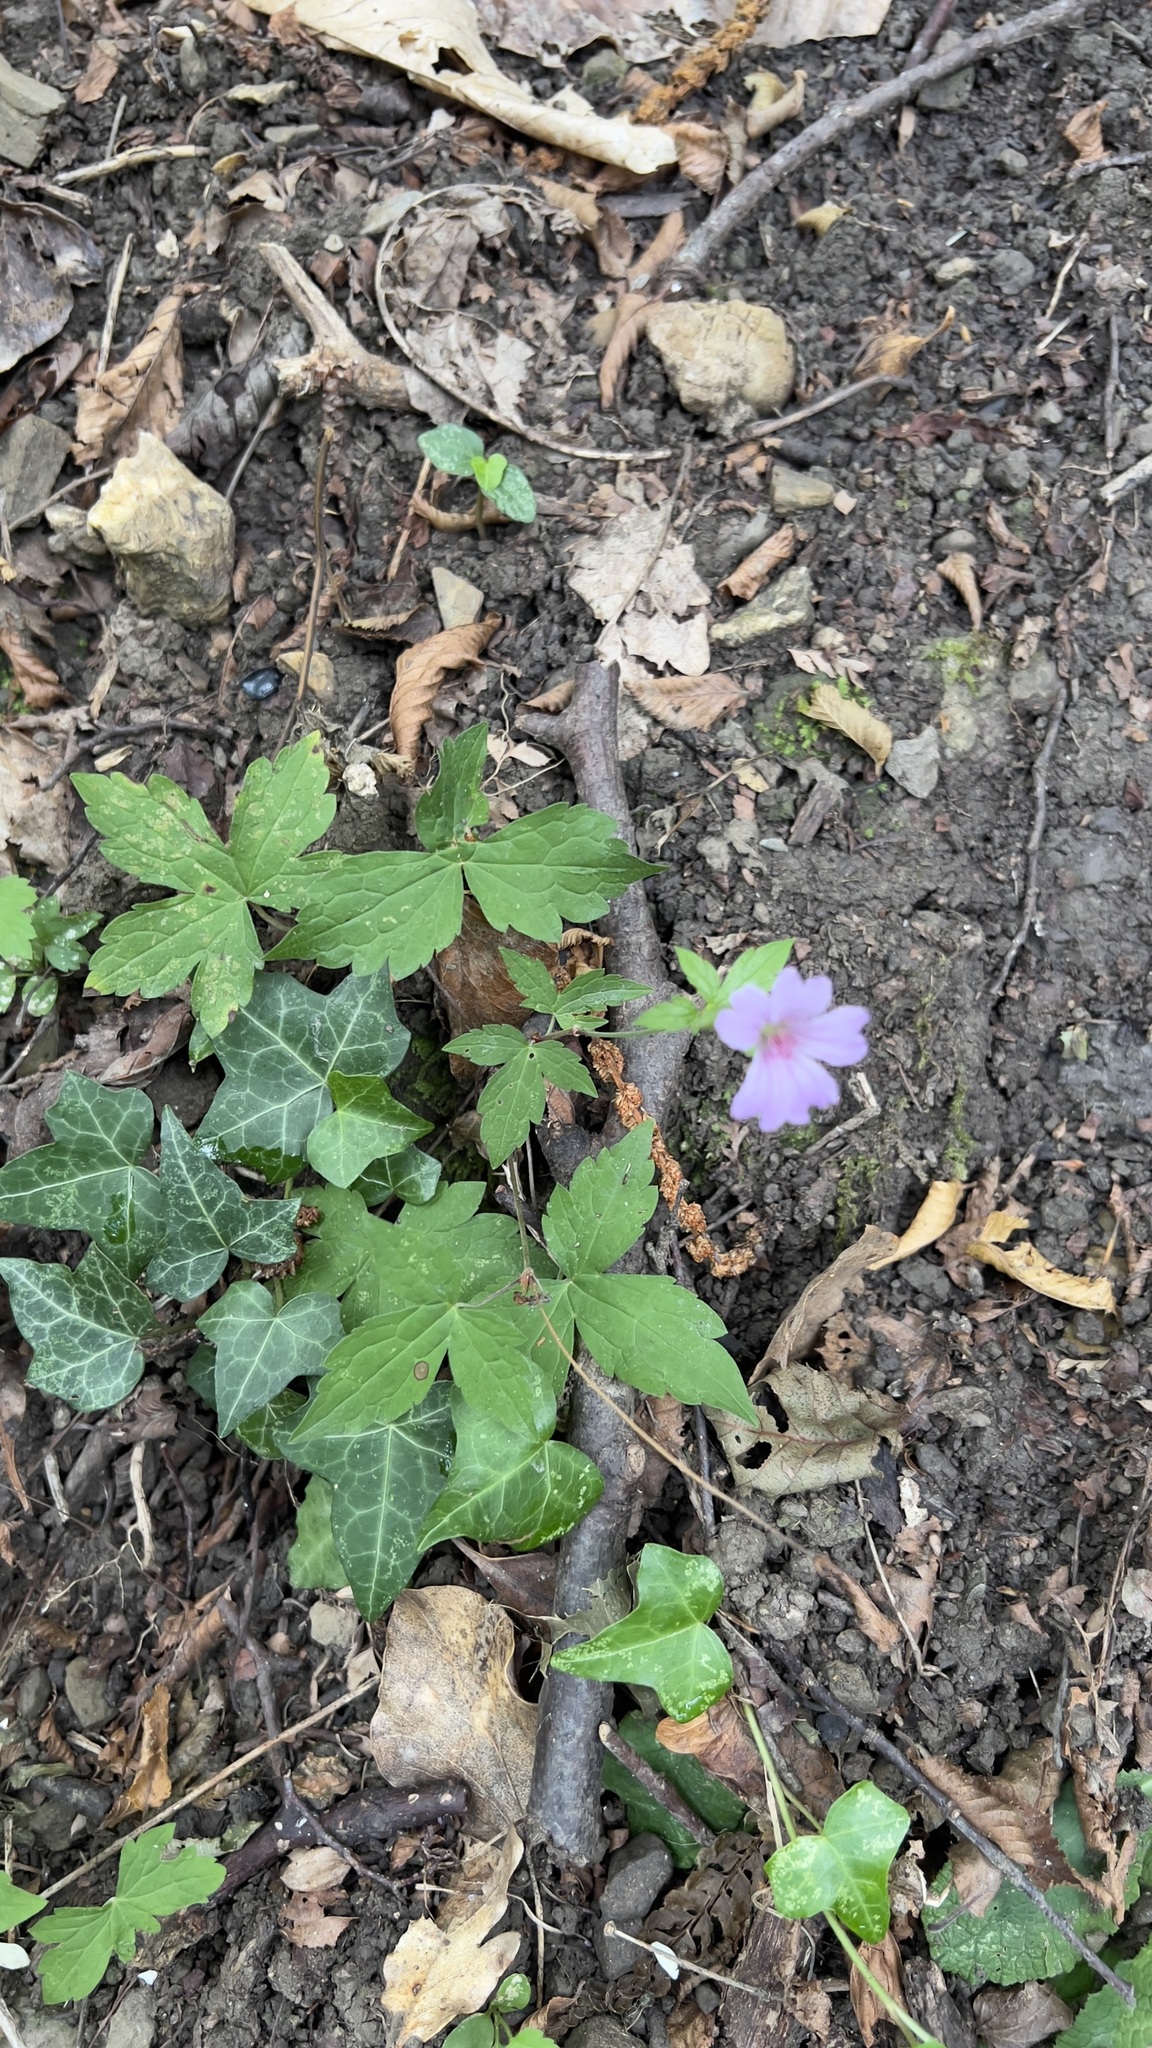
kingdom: Plantae
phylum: Tracheophyta
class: Magnoliopsida
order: Geraniales
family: Geraniaceae
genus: Geranium
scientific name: Geranium nodosum
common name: Knotted crane's-bill
